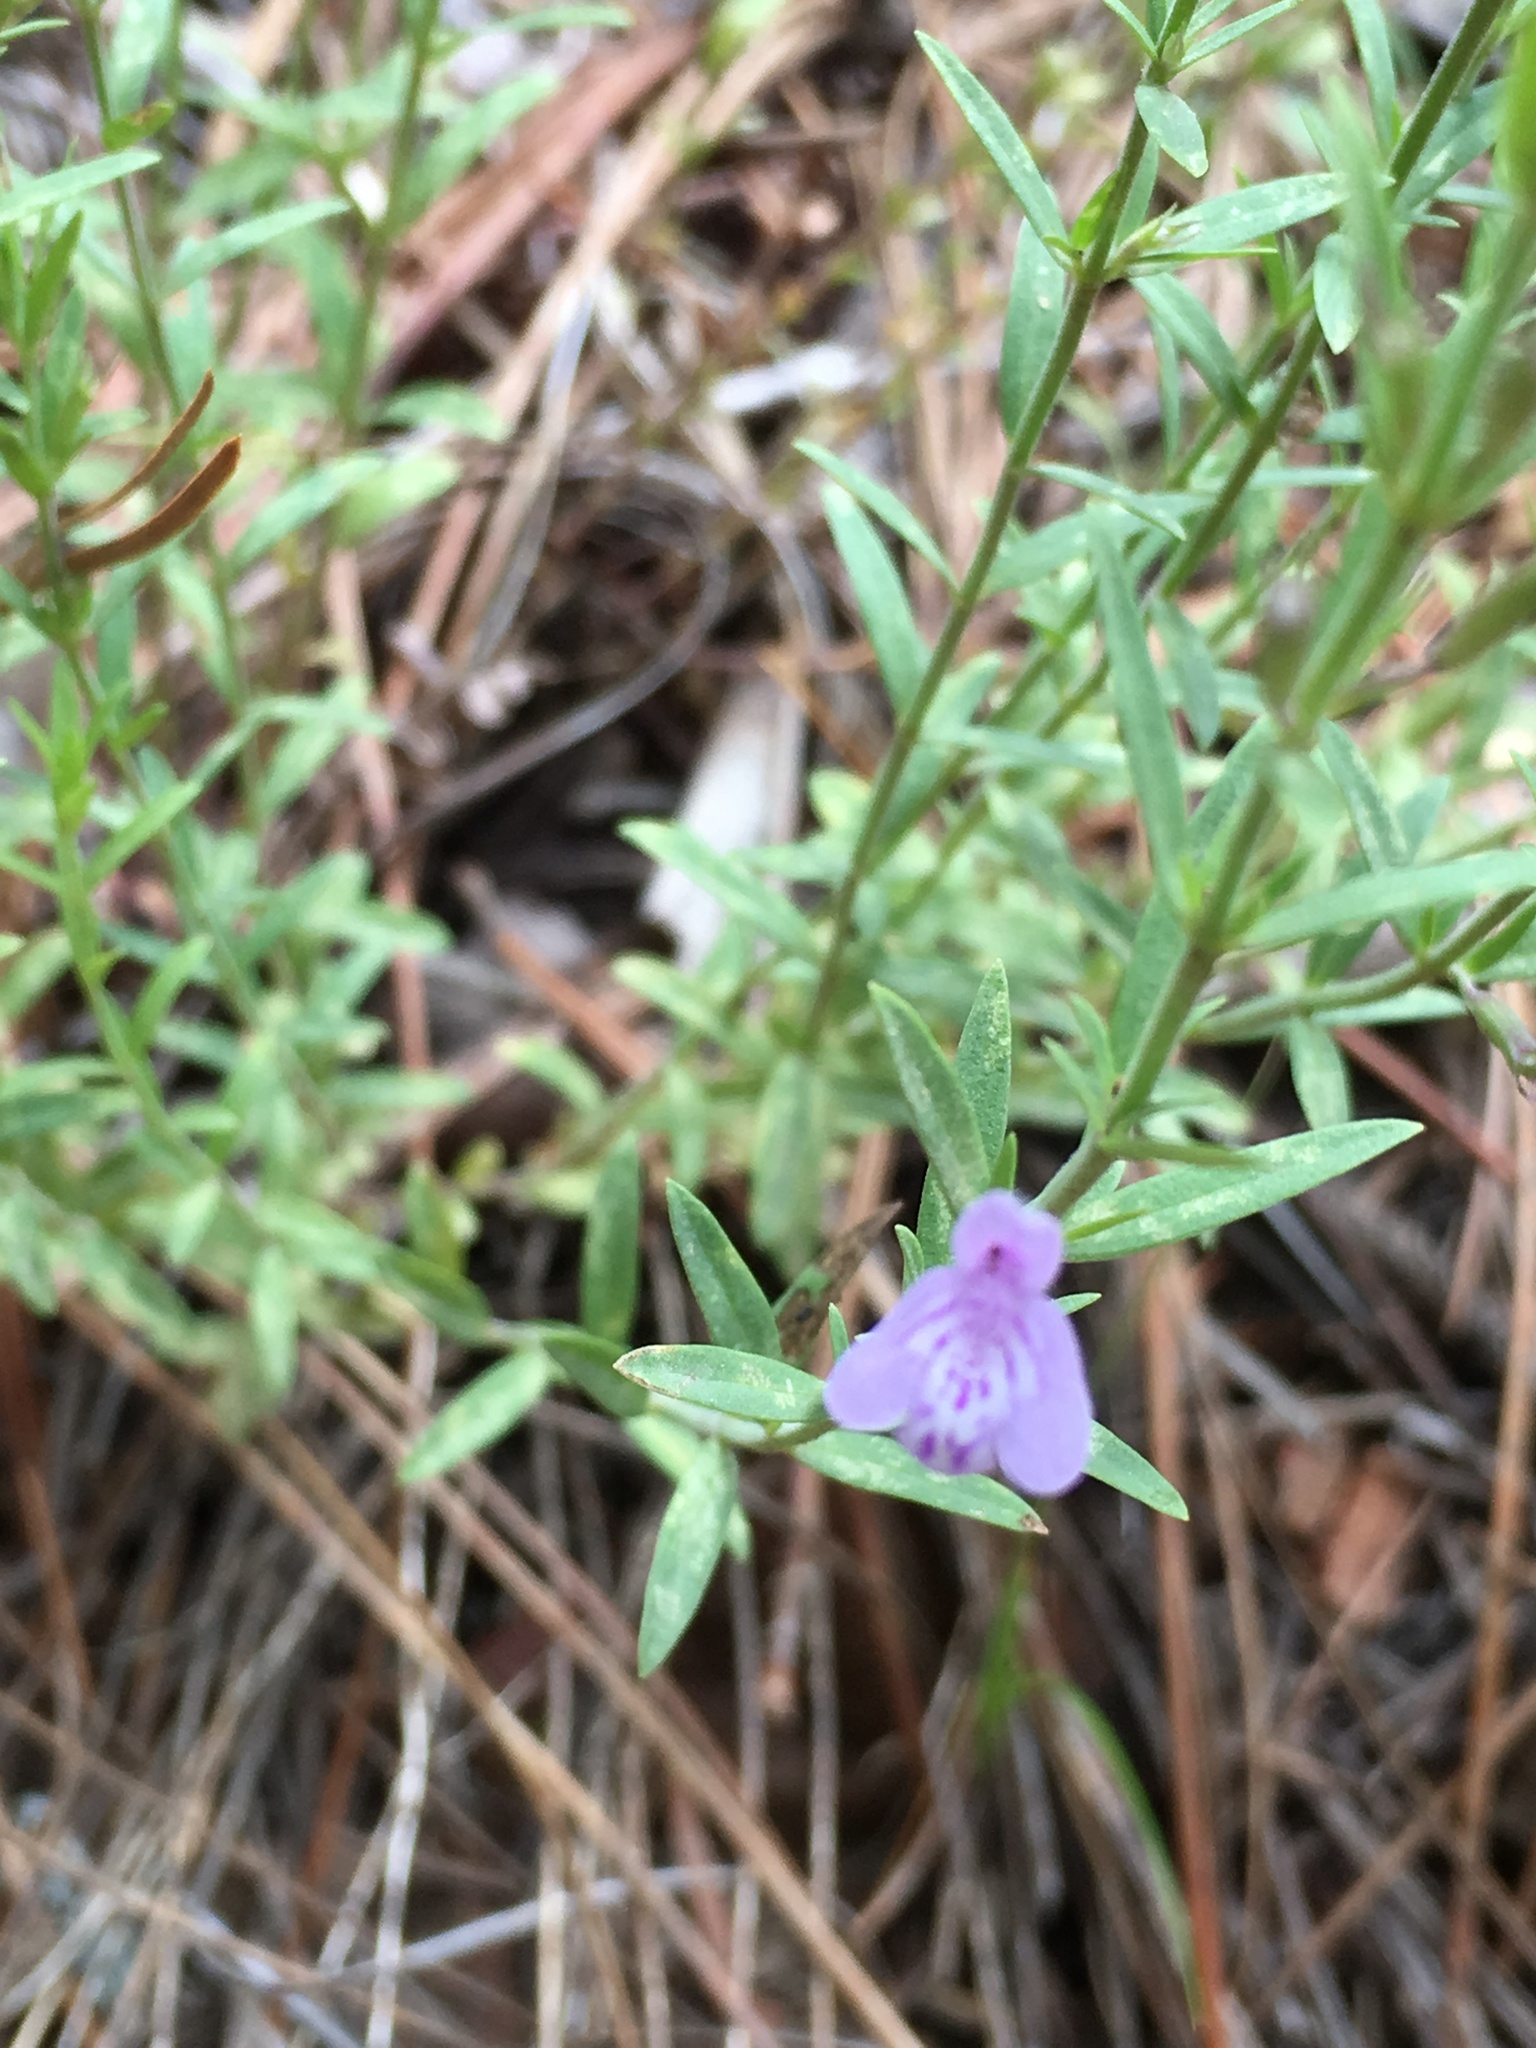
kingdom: Plantae
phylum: Tracheophyta
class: Magnoliopsida
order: Lamiales
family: Lamiaceae
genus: Hedeoma
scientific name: Hedeoma hyssopifolia
